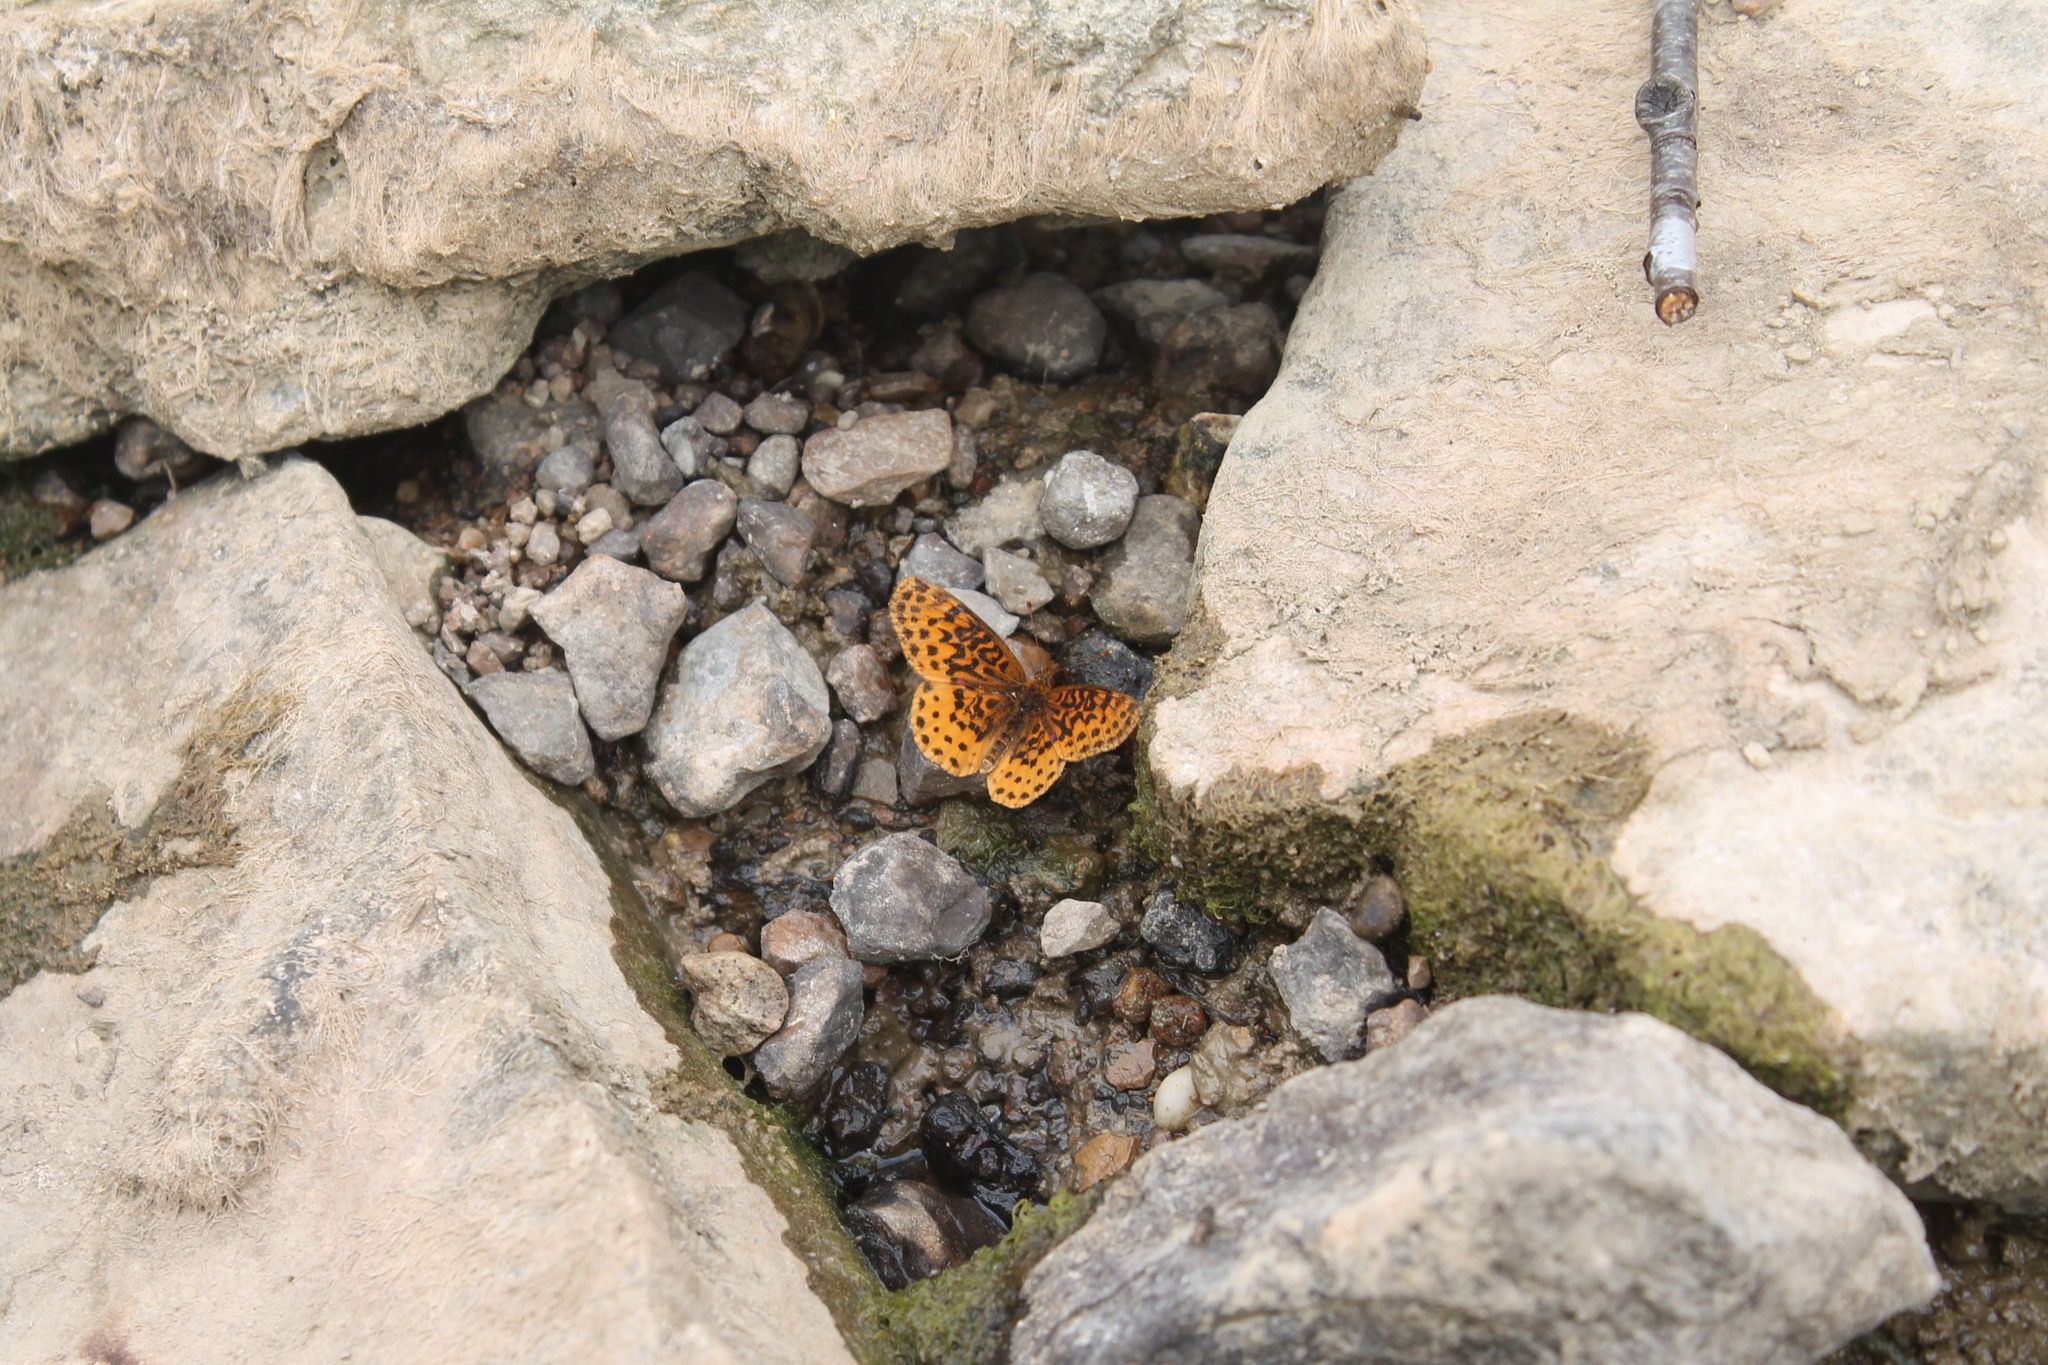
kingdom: Animalia
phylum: Arthropoda
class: Insecta
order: Lepidoptera
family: Nymphalidae
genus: Clossiana
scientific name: Clossiana toddi
